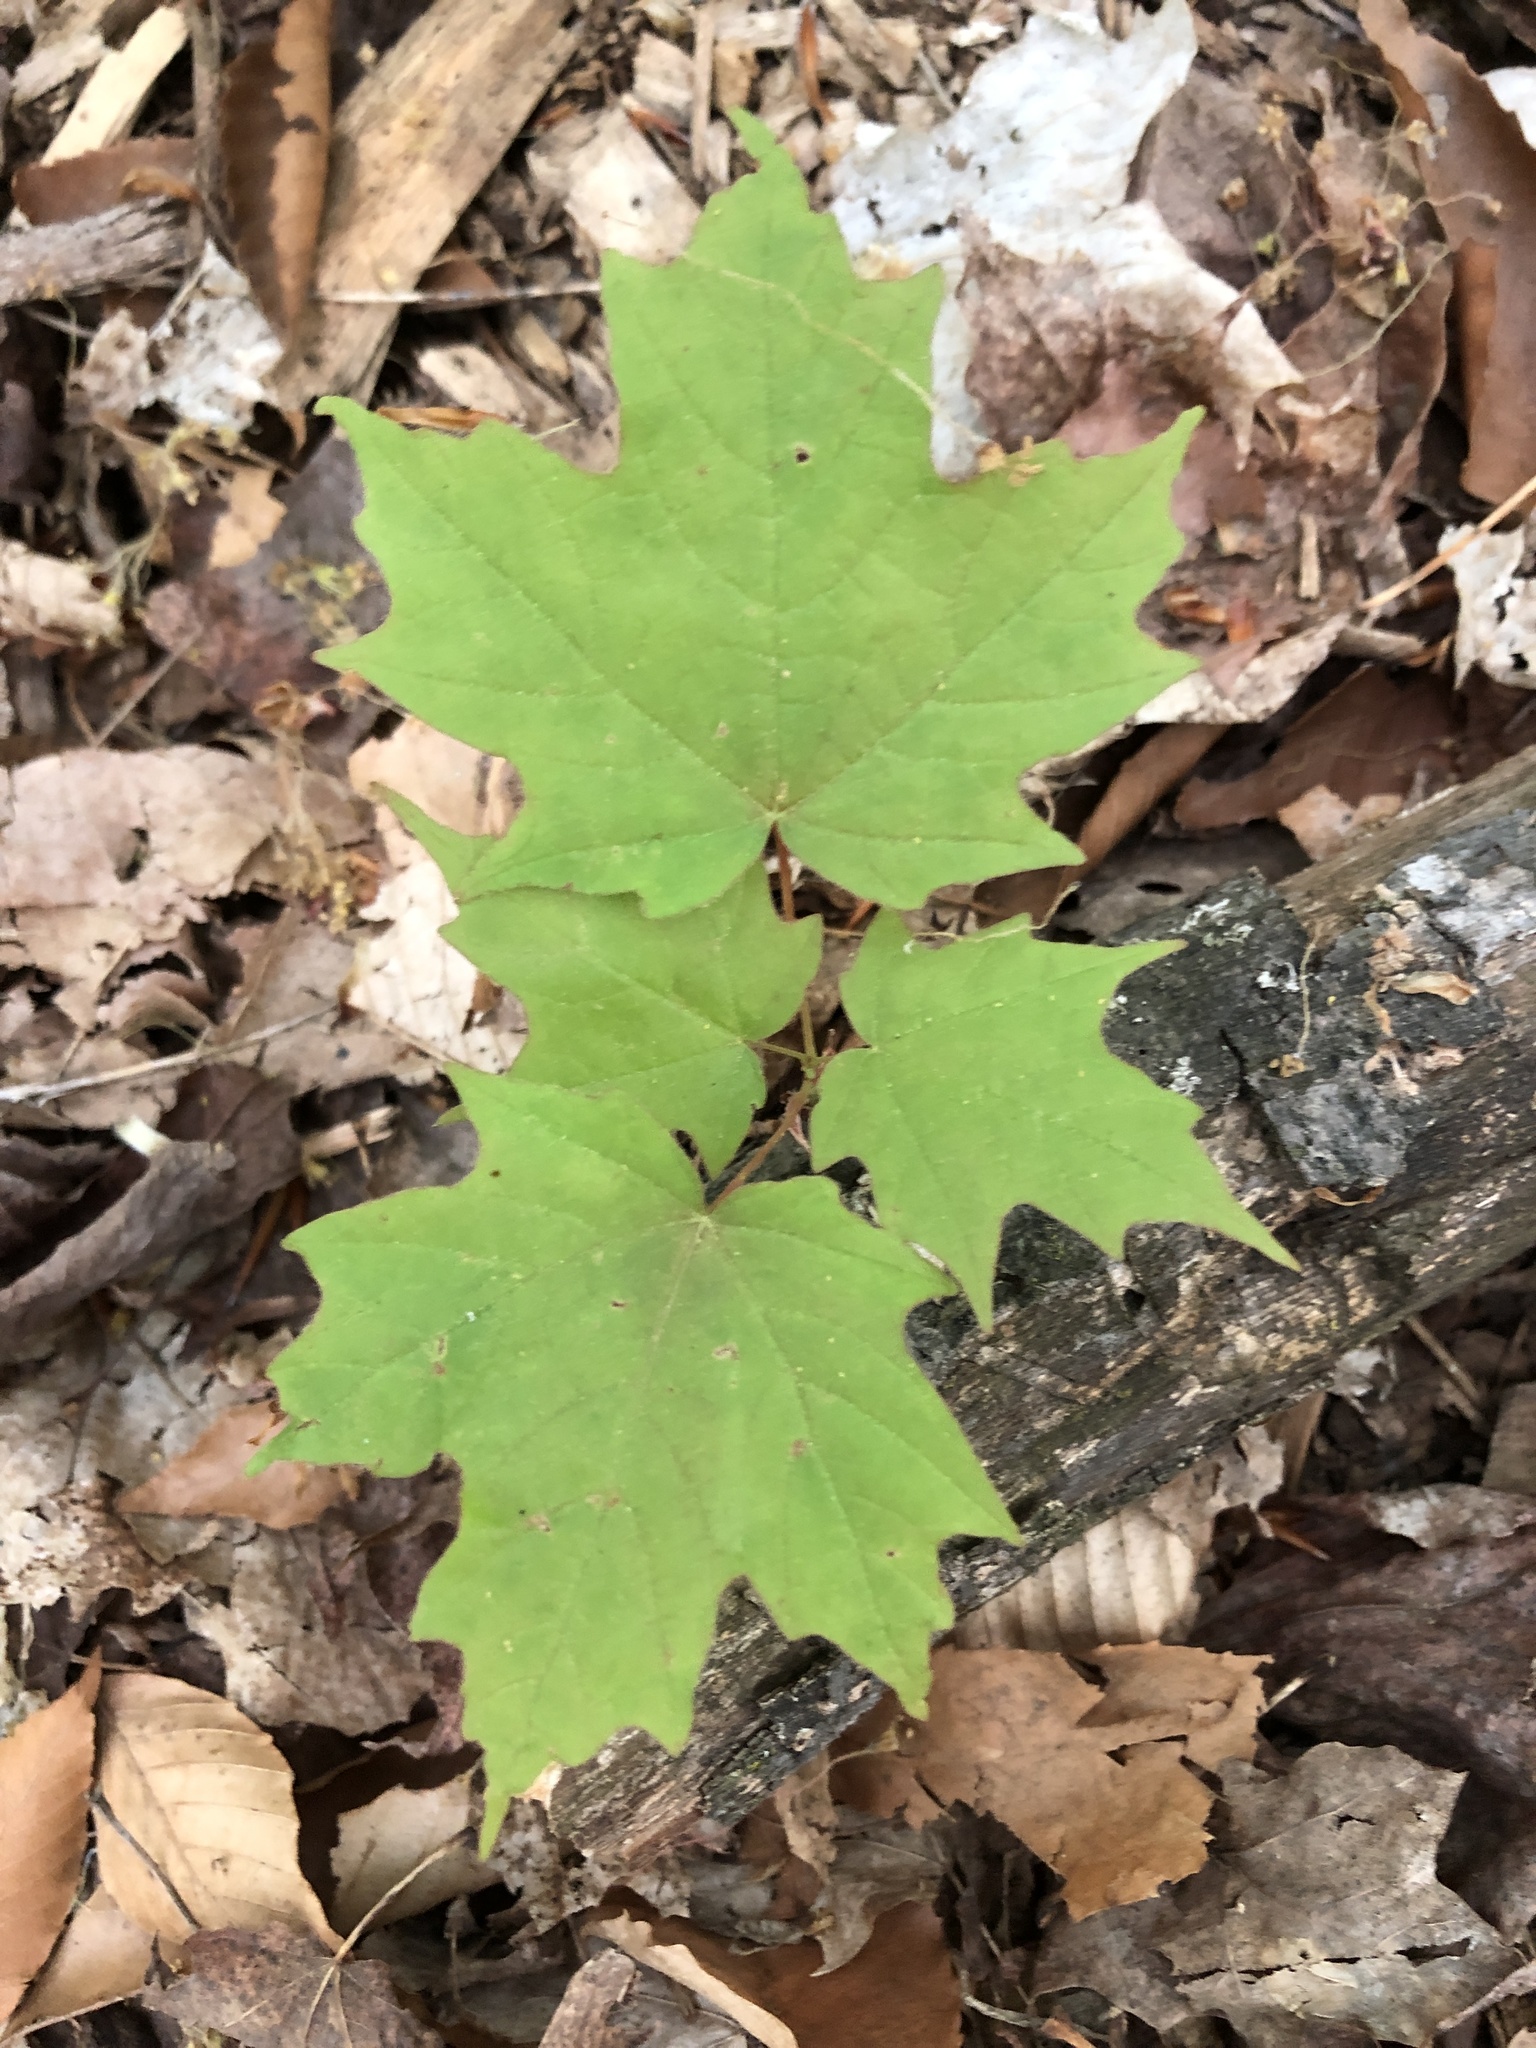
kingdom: Plantae
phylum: Tracheophyta
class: Magnoliopsida
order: Sapindales
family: Sapindaceae
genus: Acer
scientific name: Acer saccharum
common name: Sugar maple
